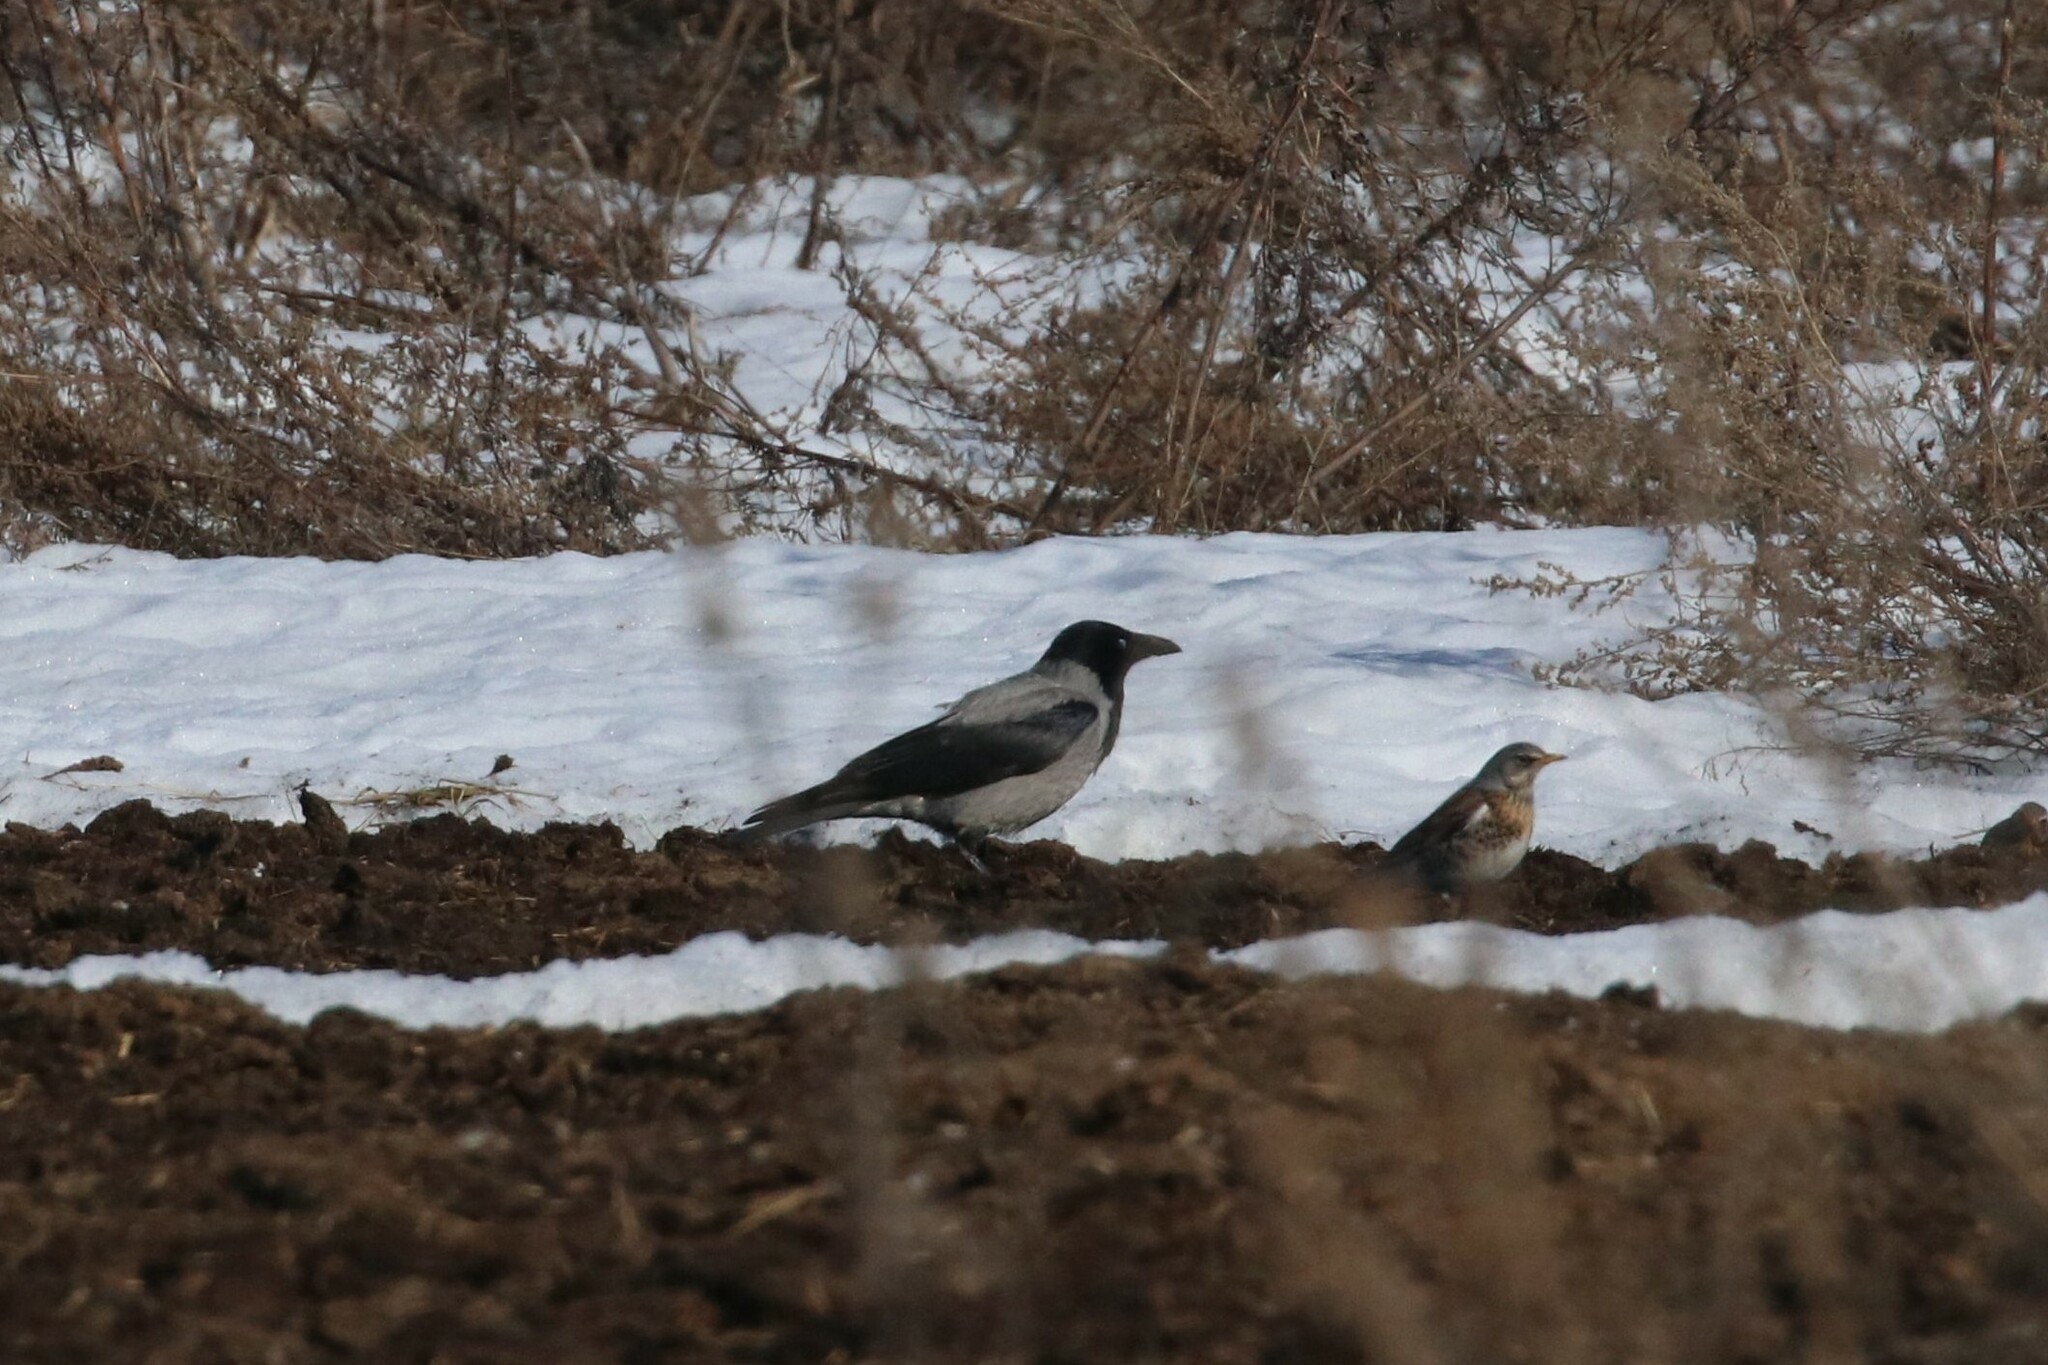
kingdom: Animalia
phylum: Chordata
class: Aves
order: Passeriformes
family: Corvidae
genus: Corvus
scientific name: Corvus cornix
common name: Hooded crow
